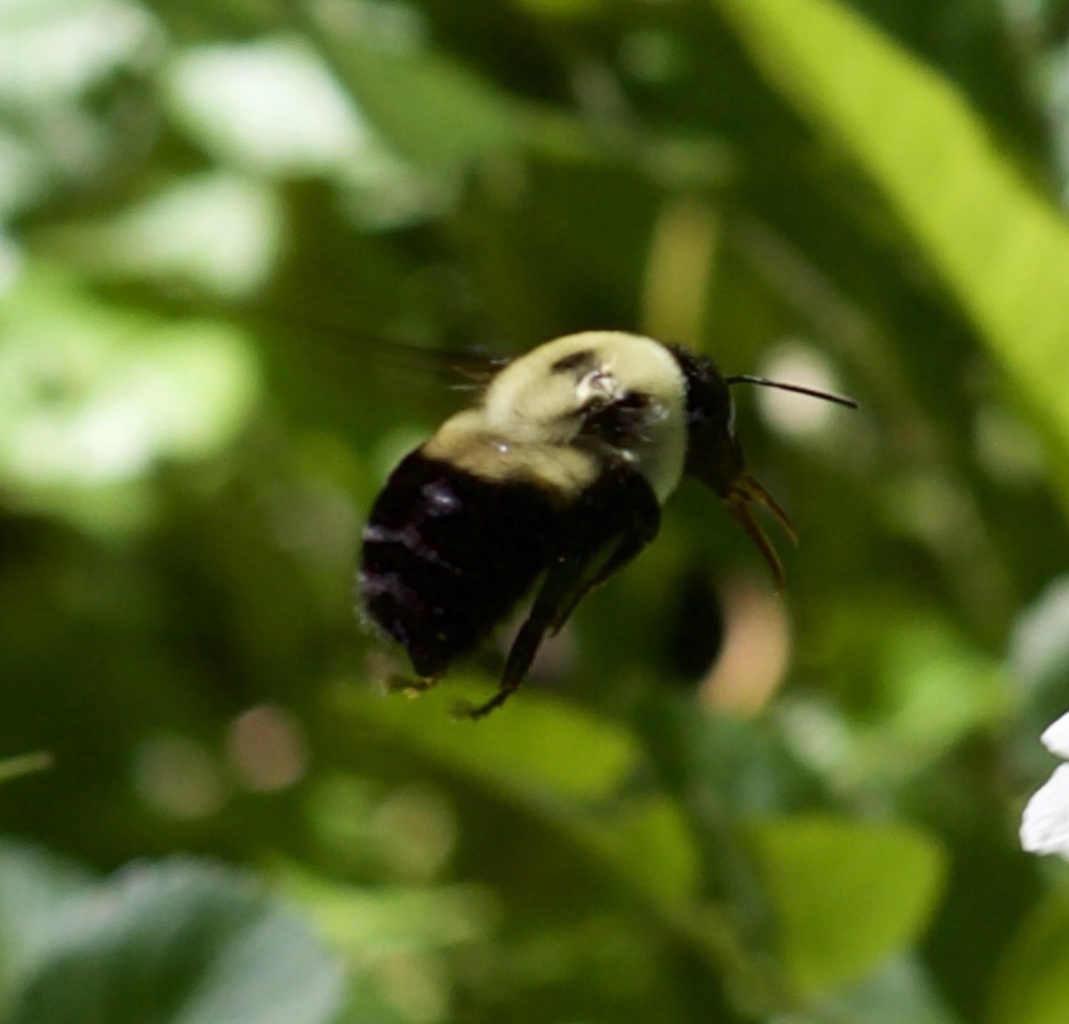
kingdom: Animalia
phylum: Arthropoda
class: Insecta
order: Hymenoptera
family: Apidae
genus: Bombus
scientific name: Bombus griseocollis
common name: Brown-belted bumble bee
